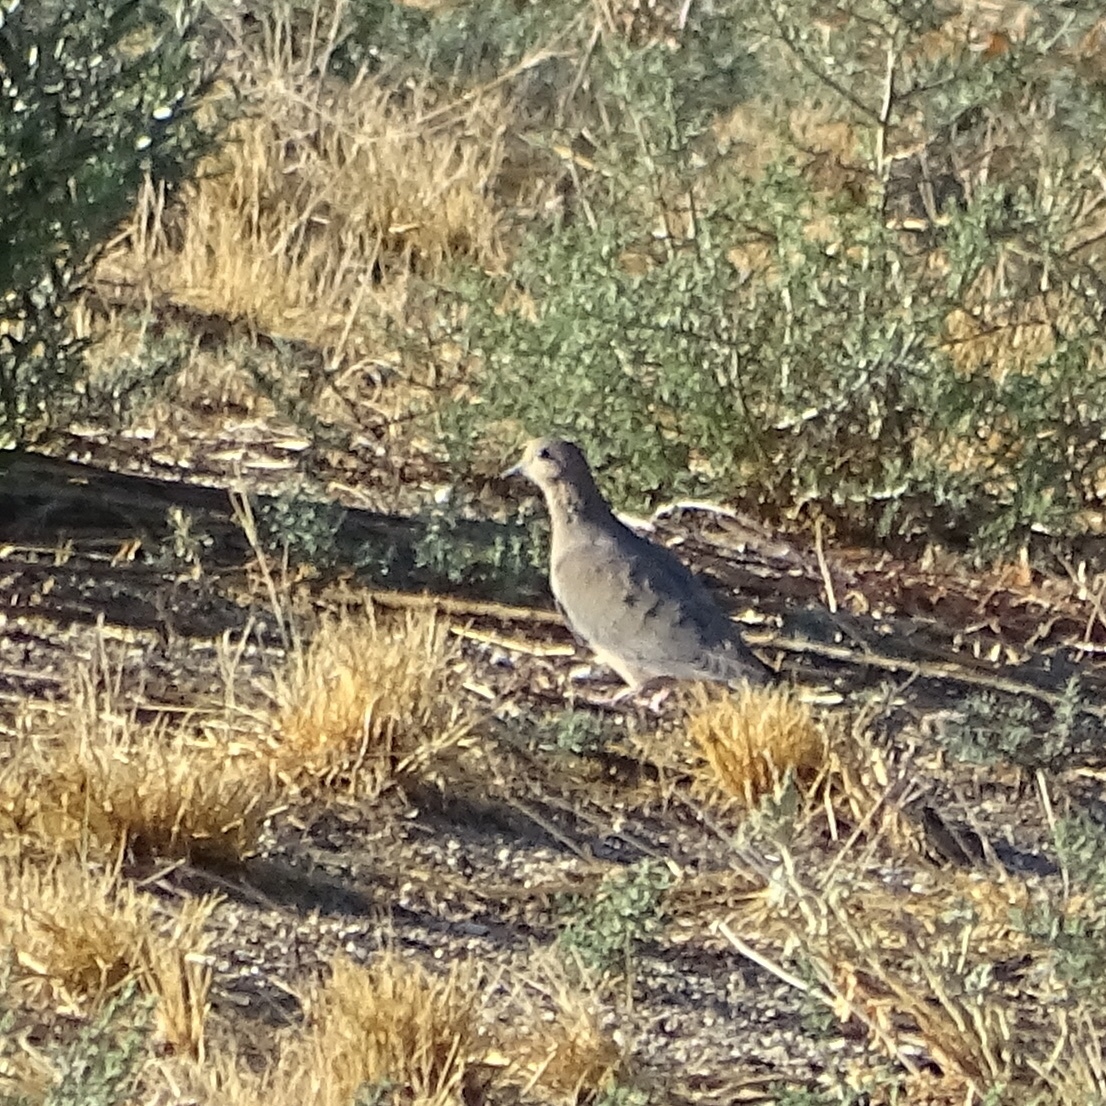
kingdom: Animalia
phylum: Chordata
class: Aves
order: Columbiformes
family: Columbidae
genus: Zenaida
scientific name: Zenaida macroura
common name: Mourning dove
